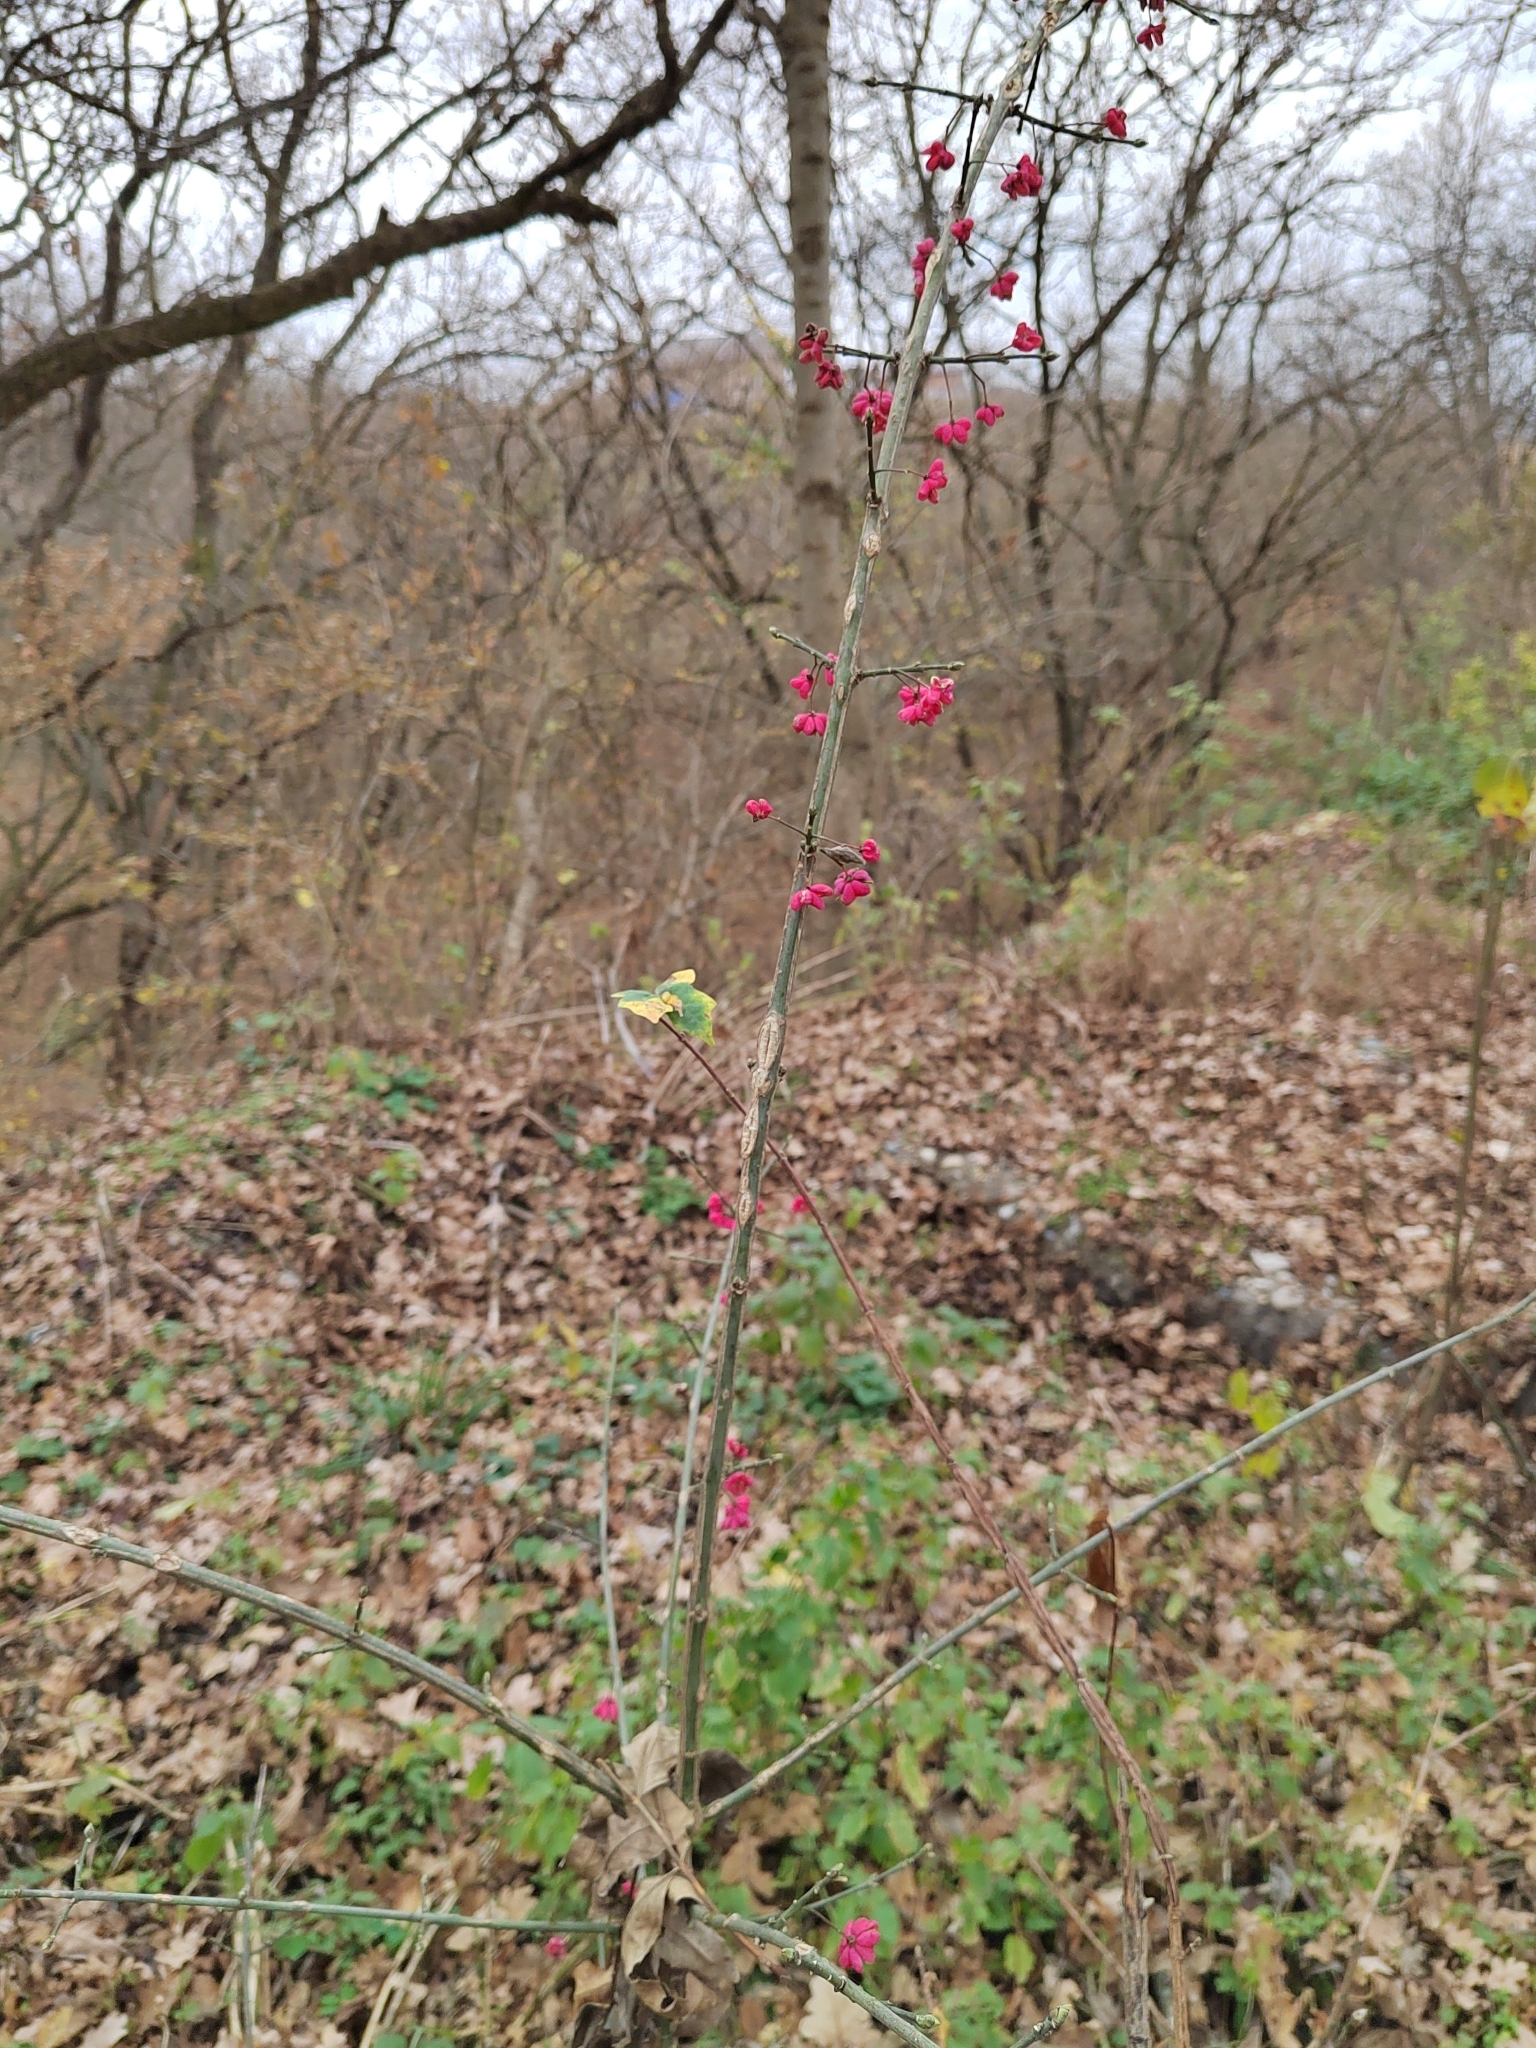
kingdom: Plantae
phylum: Tracheophyta
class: Magnoliopsida
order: Celastrales
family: Celastraceae
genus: Euonymus
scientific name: Euonymus europaeus
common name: Spindle
